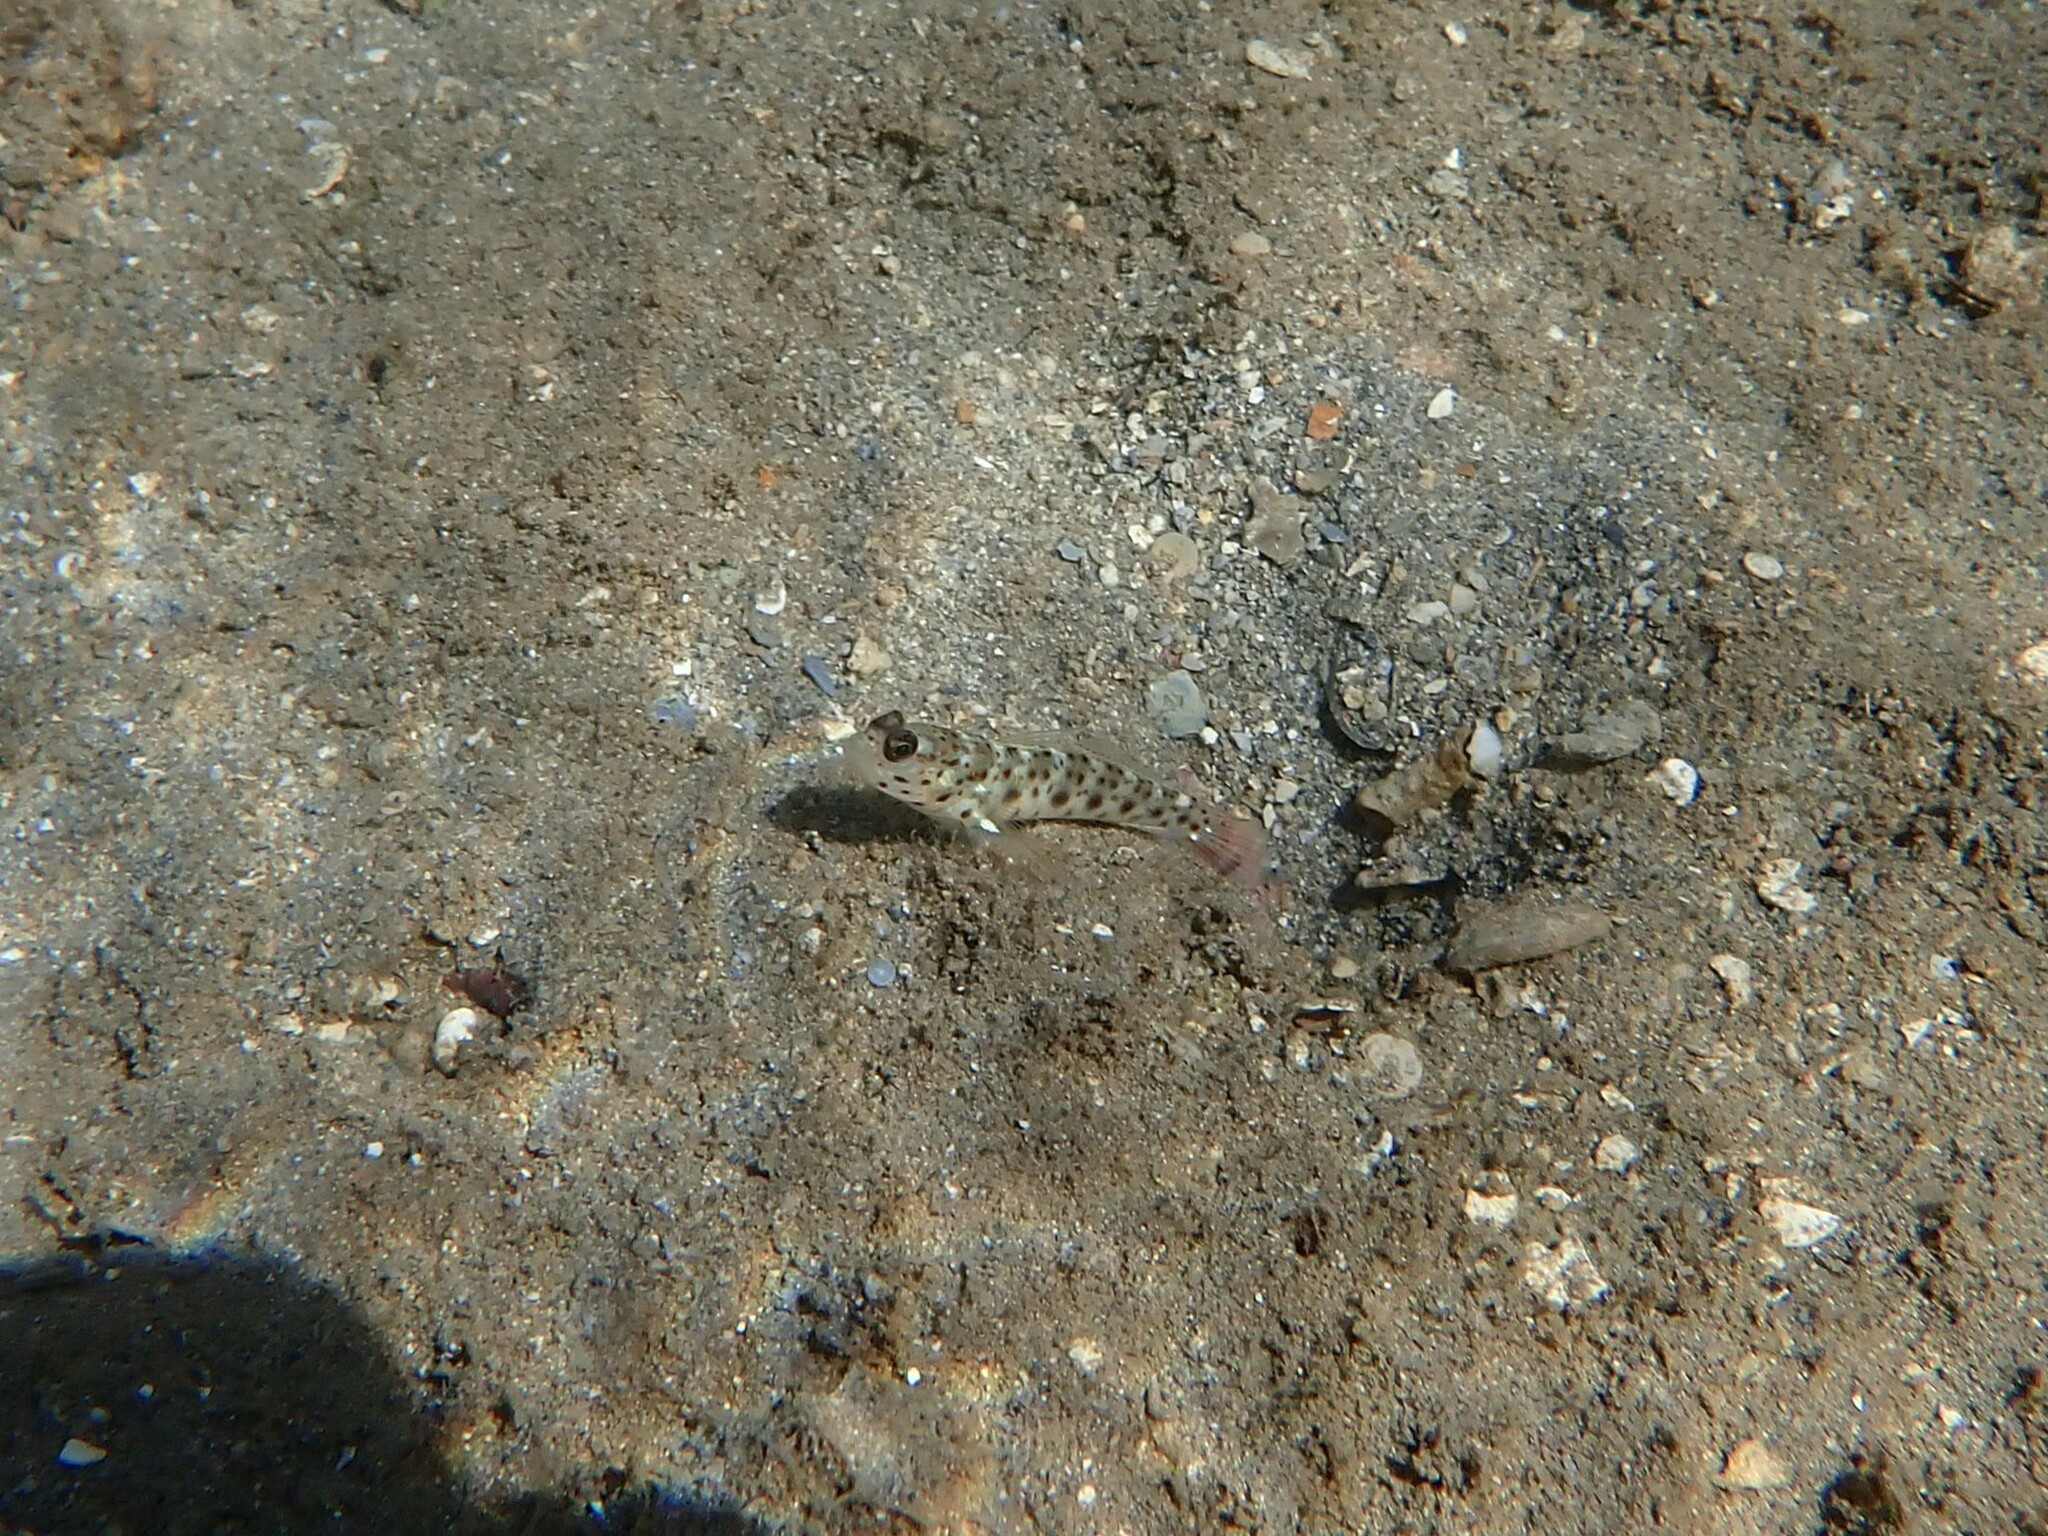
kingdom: Animalia
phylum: Chordata
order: Perciformes
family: Gobiidae
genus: Ctenogobiops
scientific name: Ctenogobiops aurocingulus
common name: Gold-streaked prawn-goby
